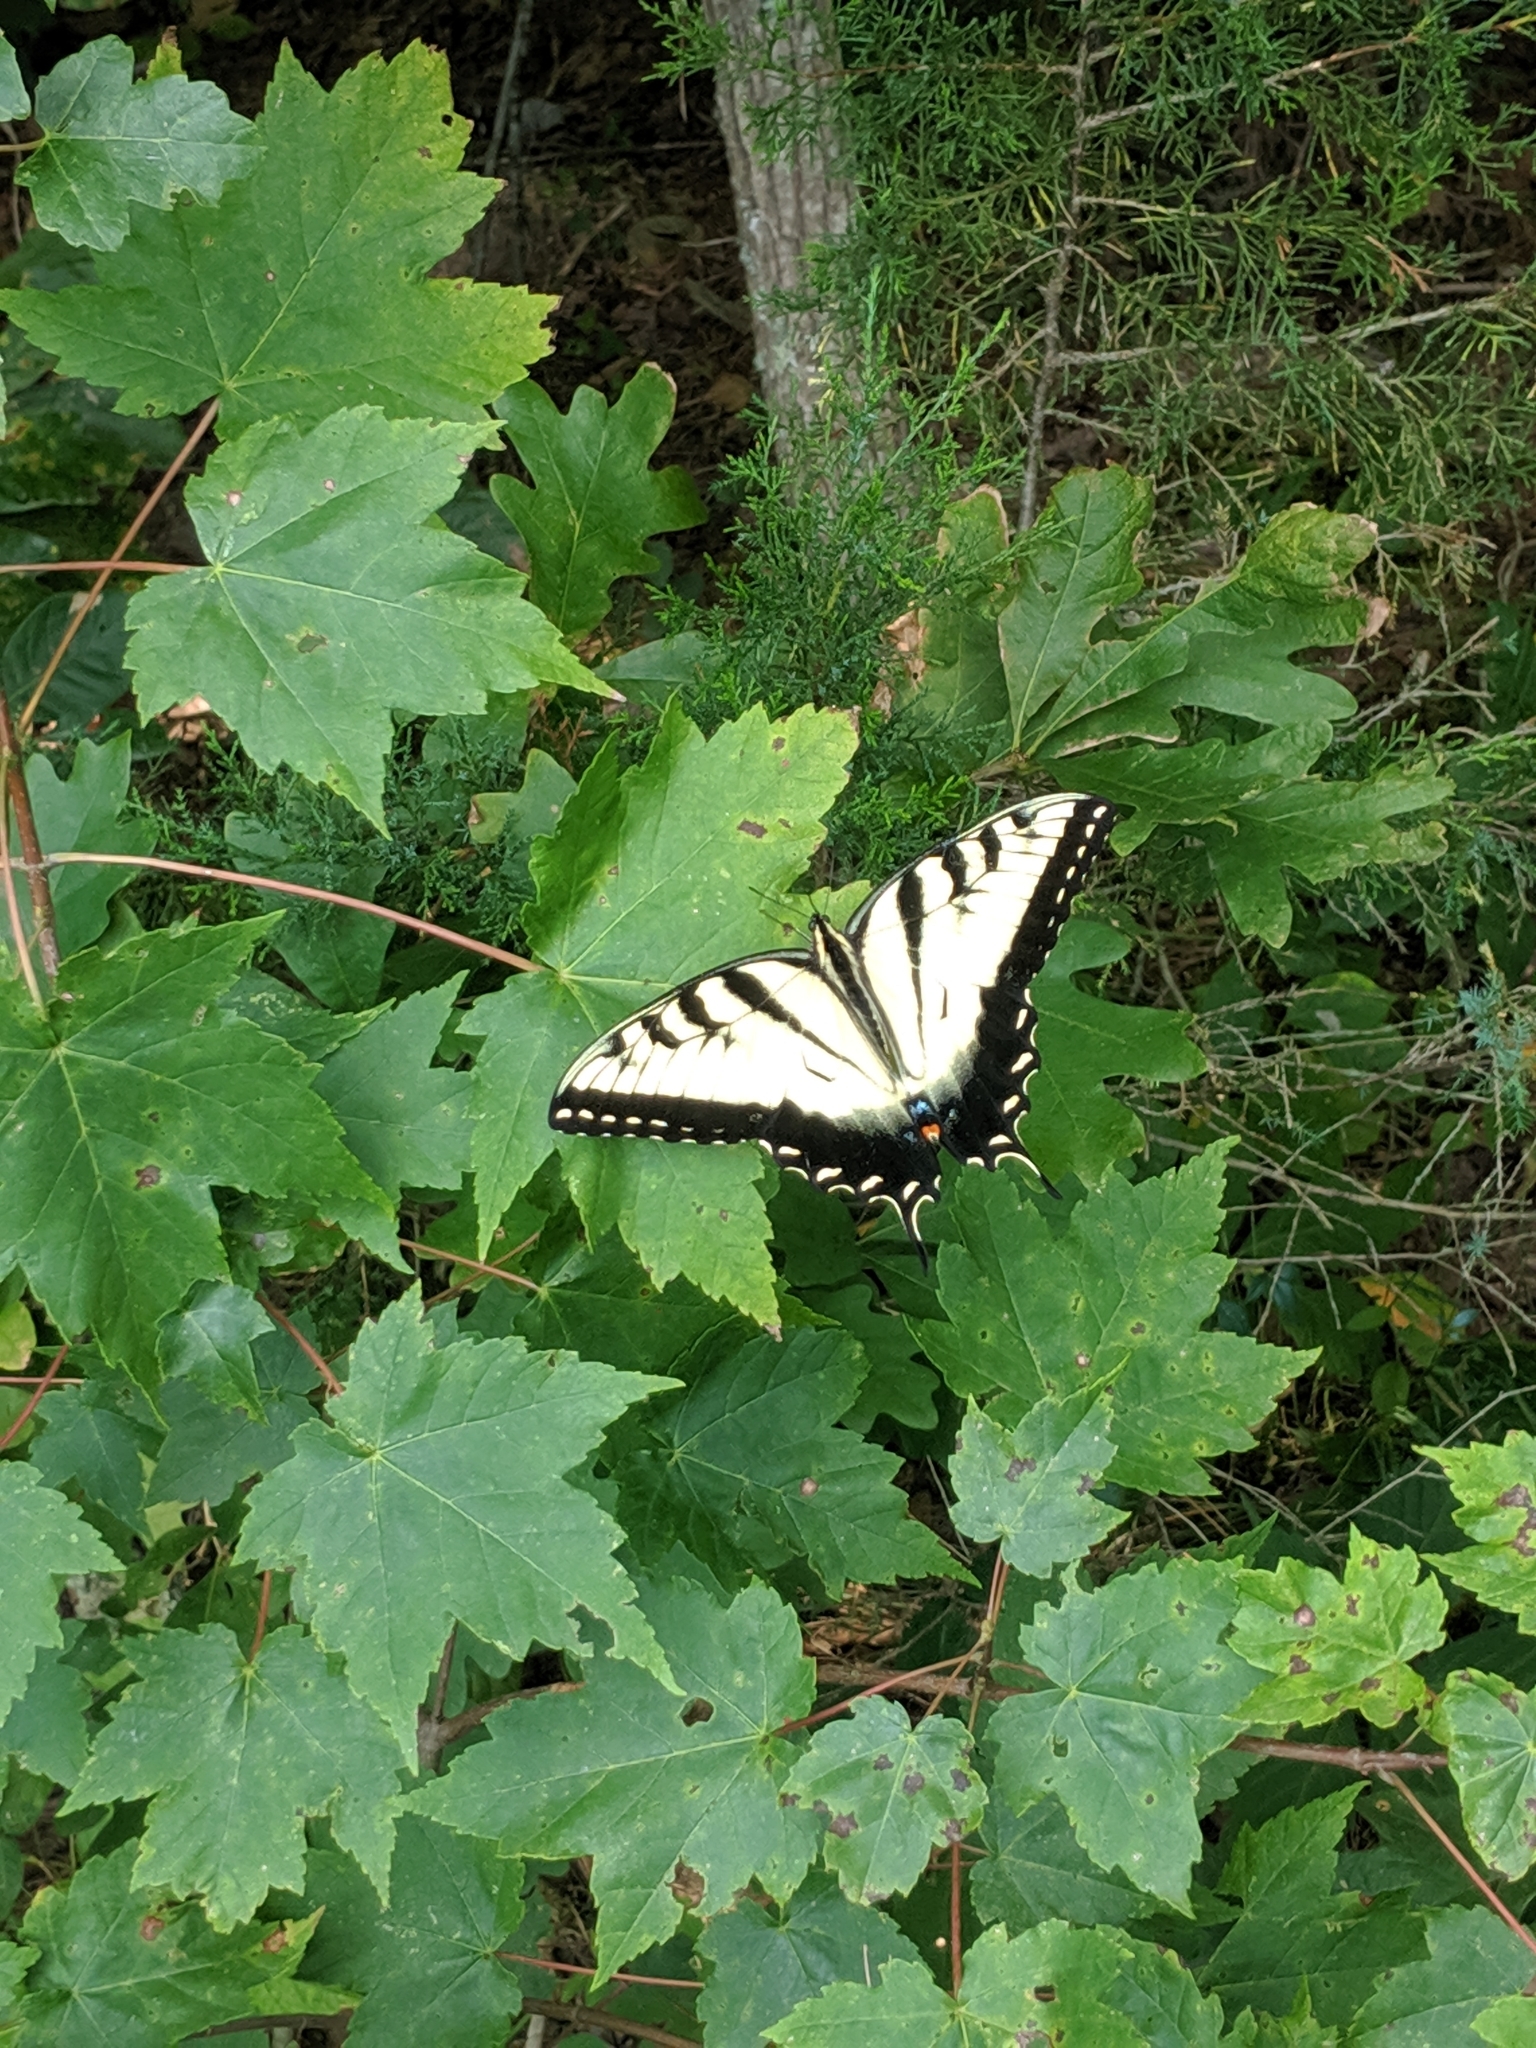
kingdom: Animalia
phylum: Arthropoda
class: Insecta
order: Lepidoptera
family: Papilionidae
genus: Papilio
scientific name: Papilio glaucus
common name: Tiger swallowtail
